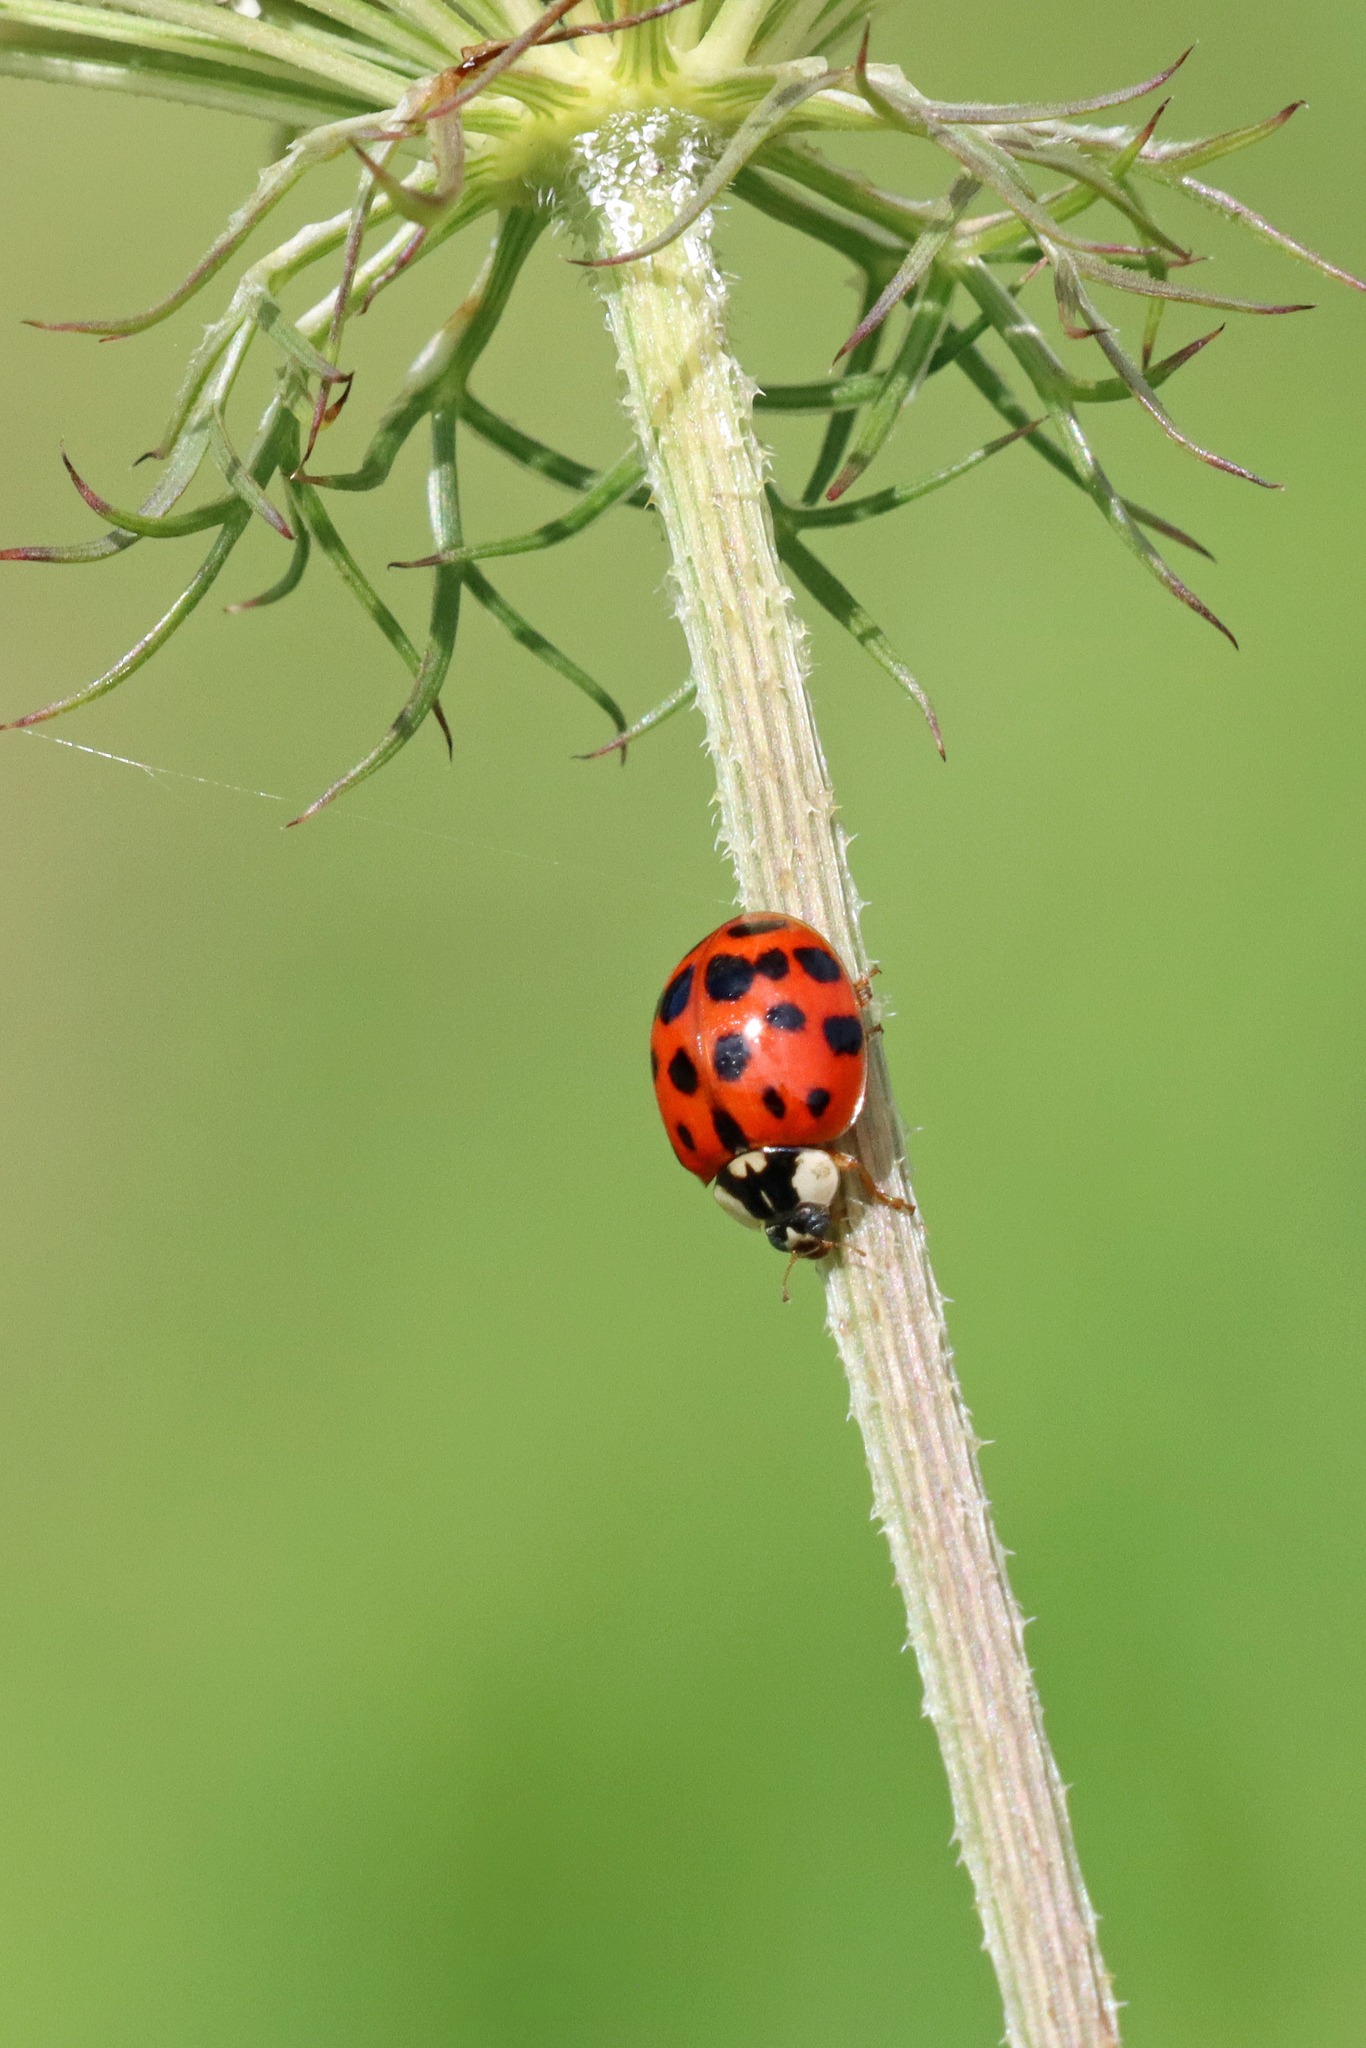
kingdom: Animalia
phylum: Arthropoda
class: Insecta
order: Coleoptera
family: Coccinellidae
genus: Harmonia
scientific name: Harmonia axyridis
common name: Harlequin ladybird
